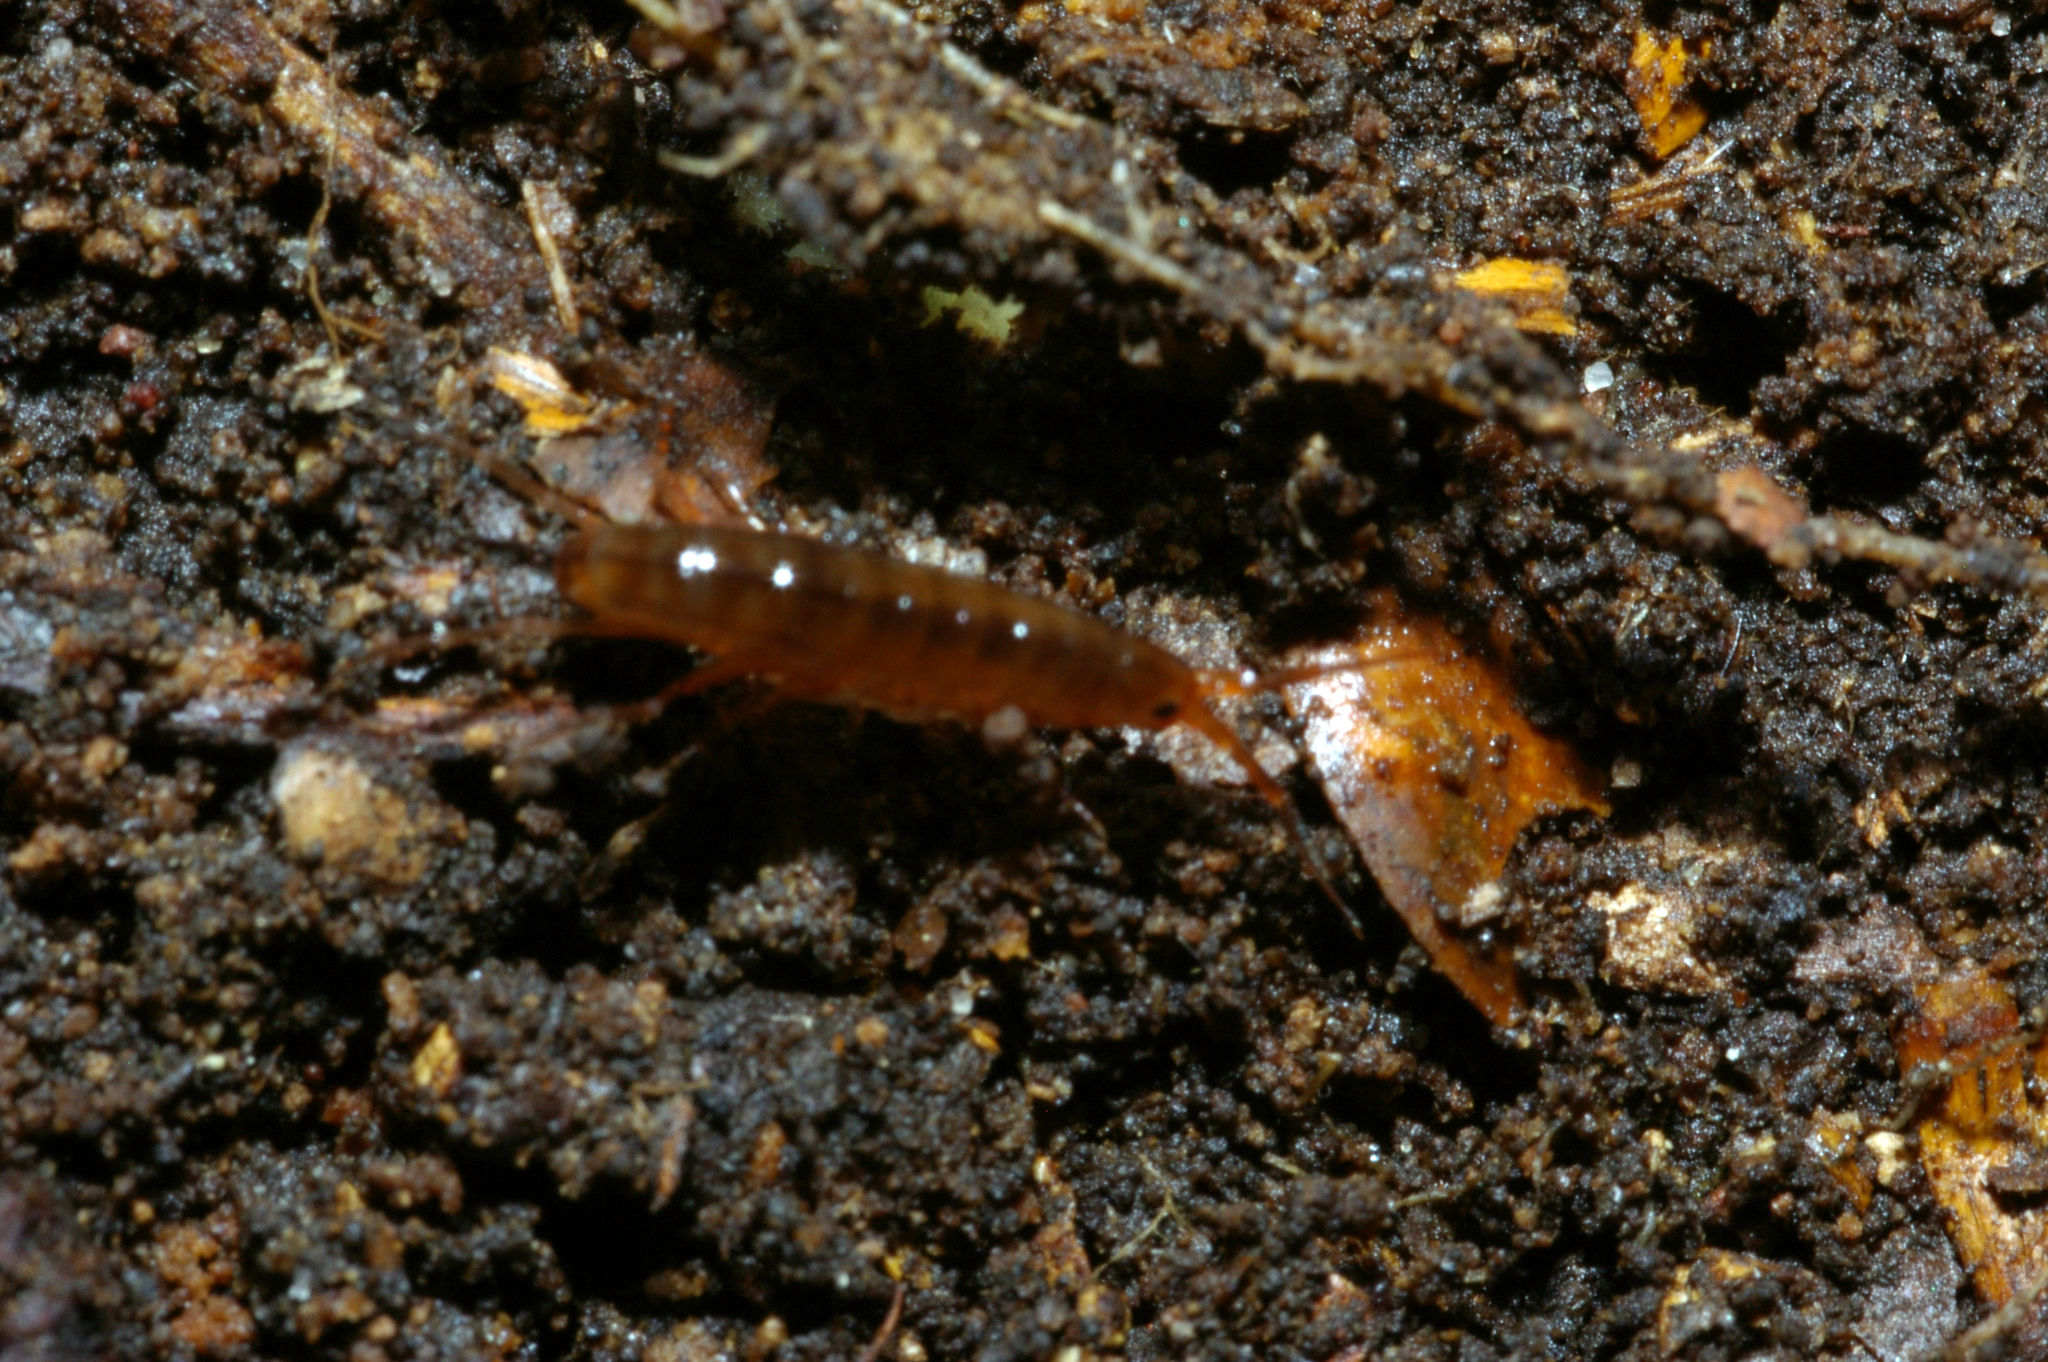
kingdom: Animalia
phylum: Arthropoda
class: Malacostraca
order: Amphipoda
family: Arcitalitridae
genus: Arcitalitrus
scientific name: Arcitalitrus dorrieni
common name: Landhopper
